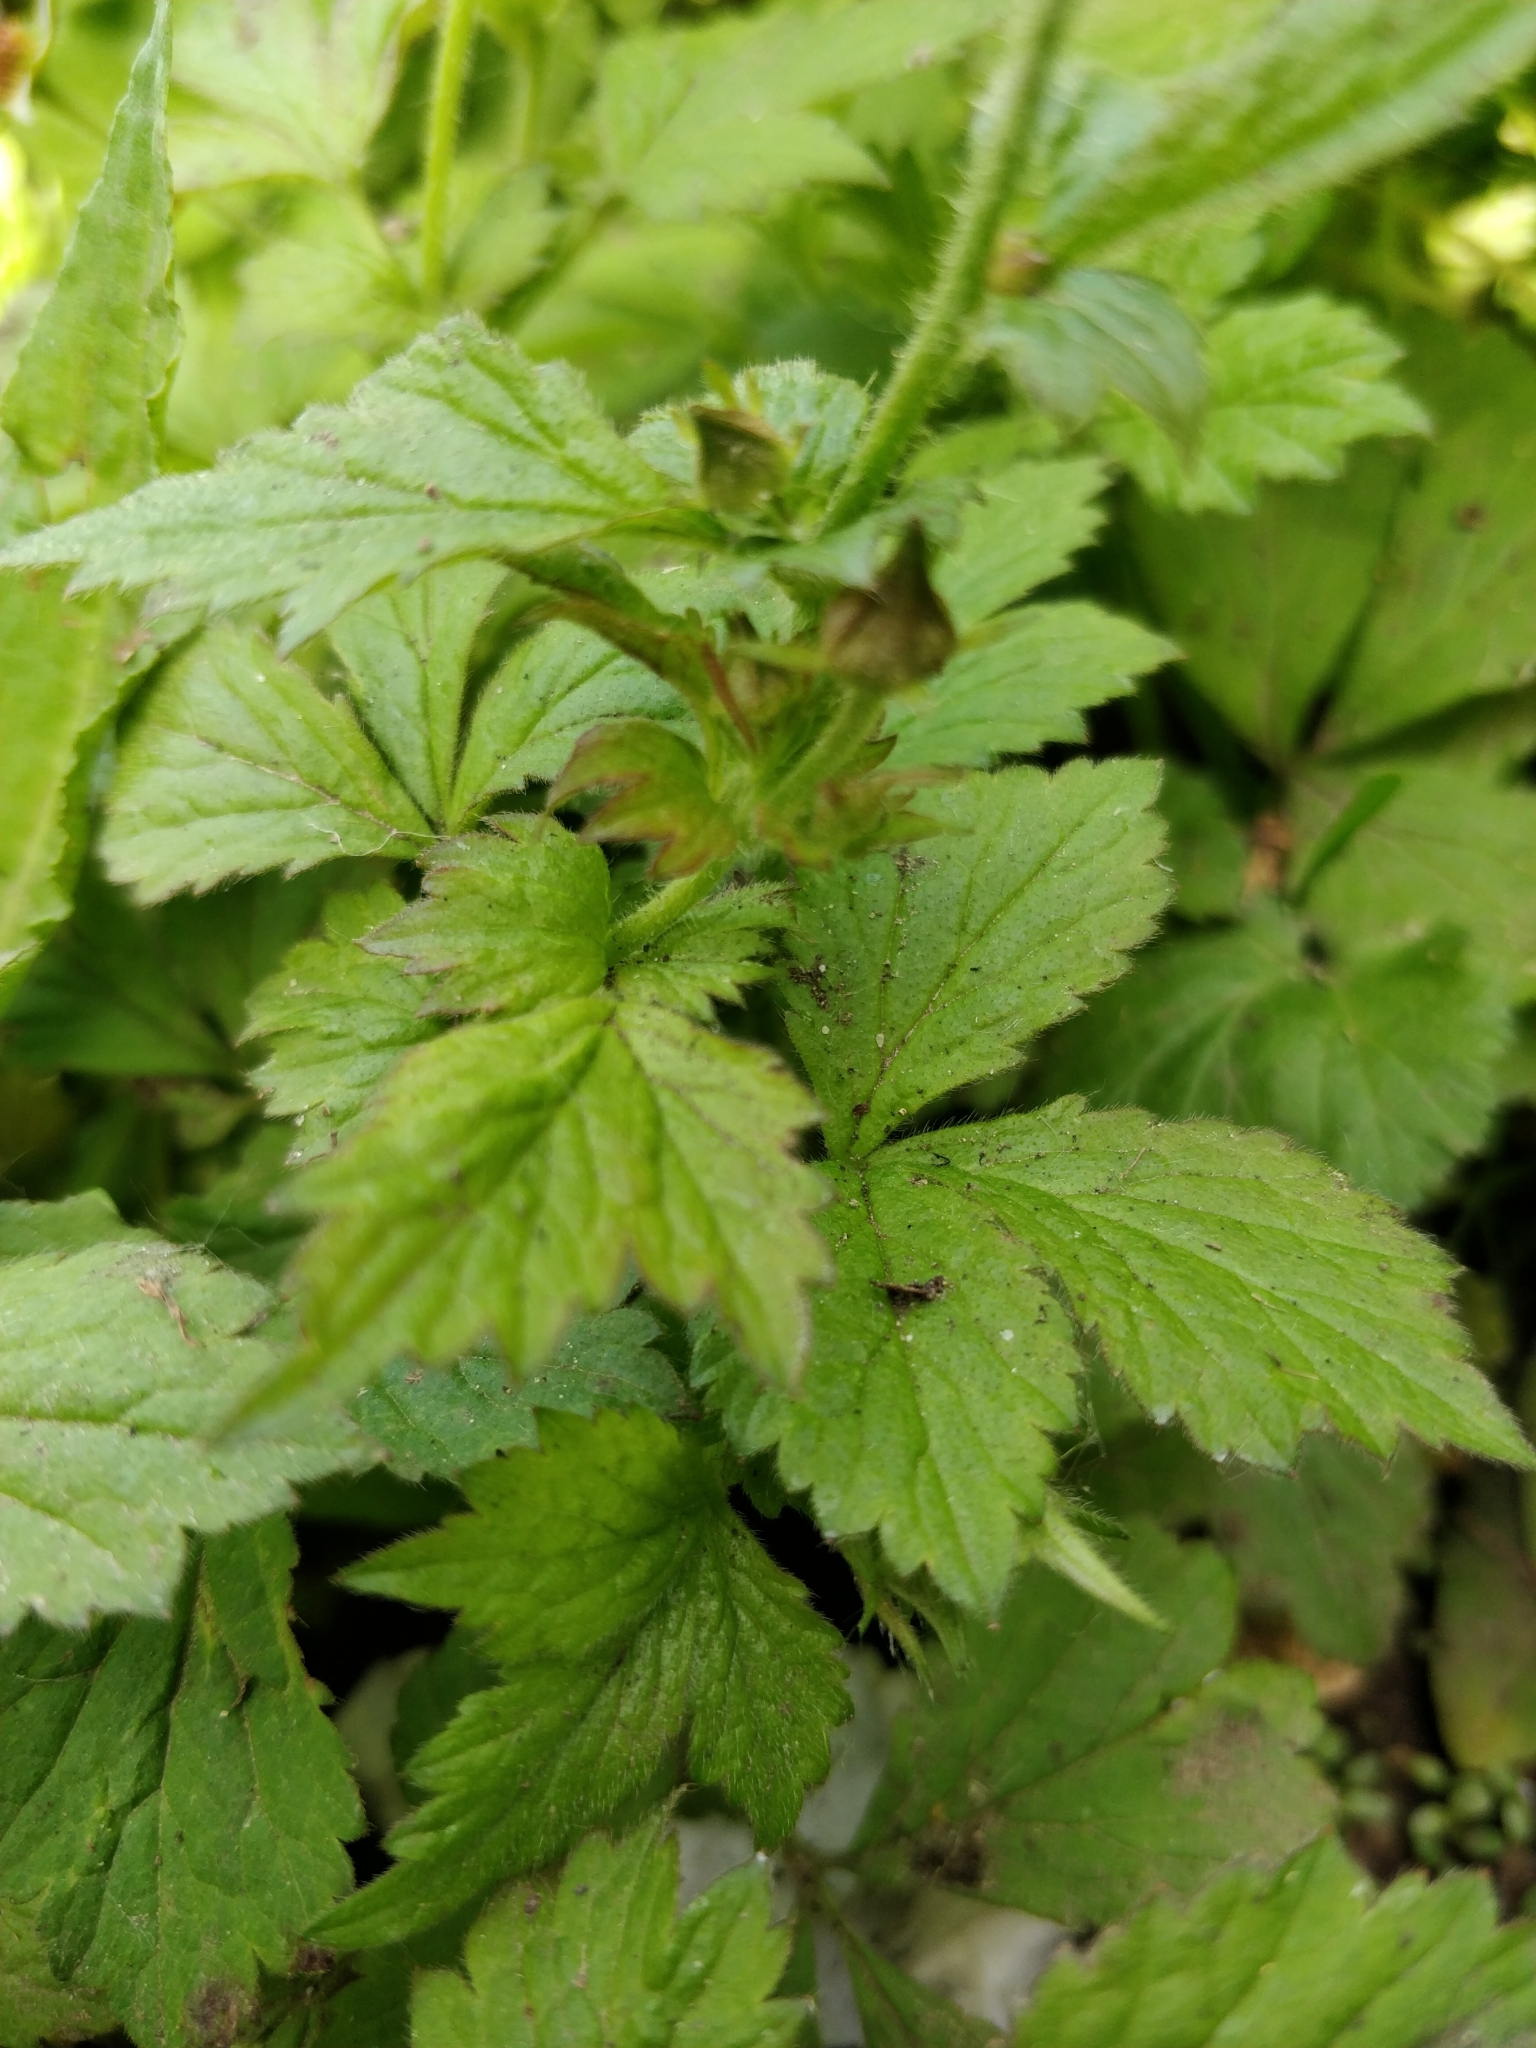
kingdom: Plantae
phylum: Tracheophyta
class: Magnoliopsida
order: Rosales
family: Rosaceae
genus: Geum
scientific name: Geum urbanum
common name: Wood avens
